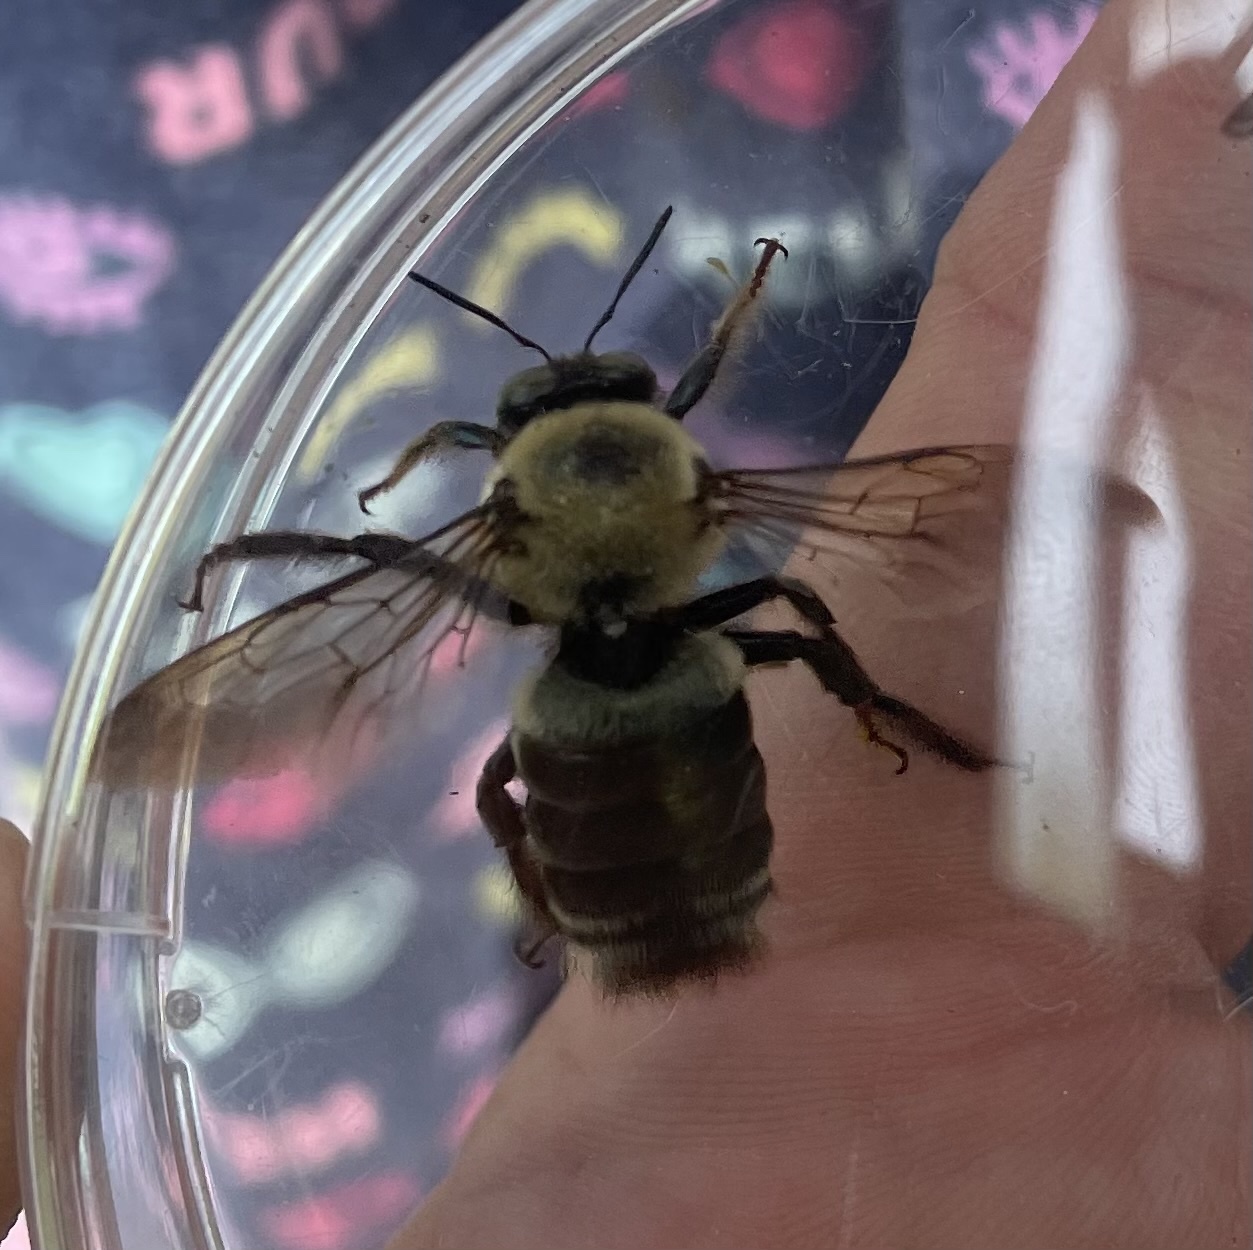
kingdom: Animalia
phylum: Arthropoda
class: Insecta
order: Hymenoptera
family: Apidae
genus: Xylocopa
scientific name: Xylocopa virginica
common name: Carpenter bee
